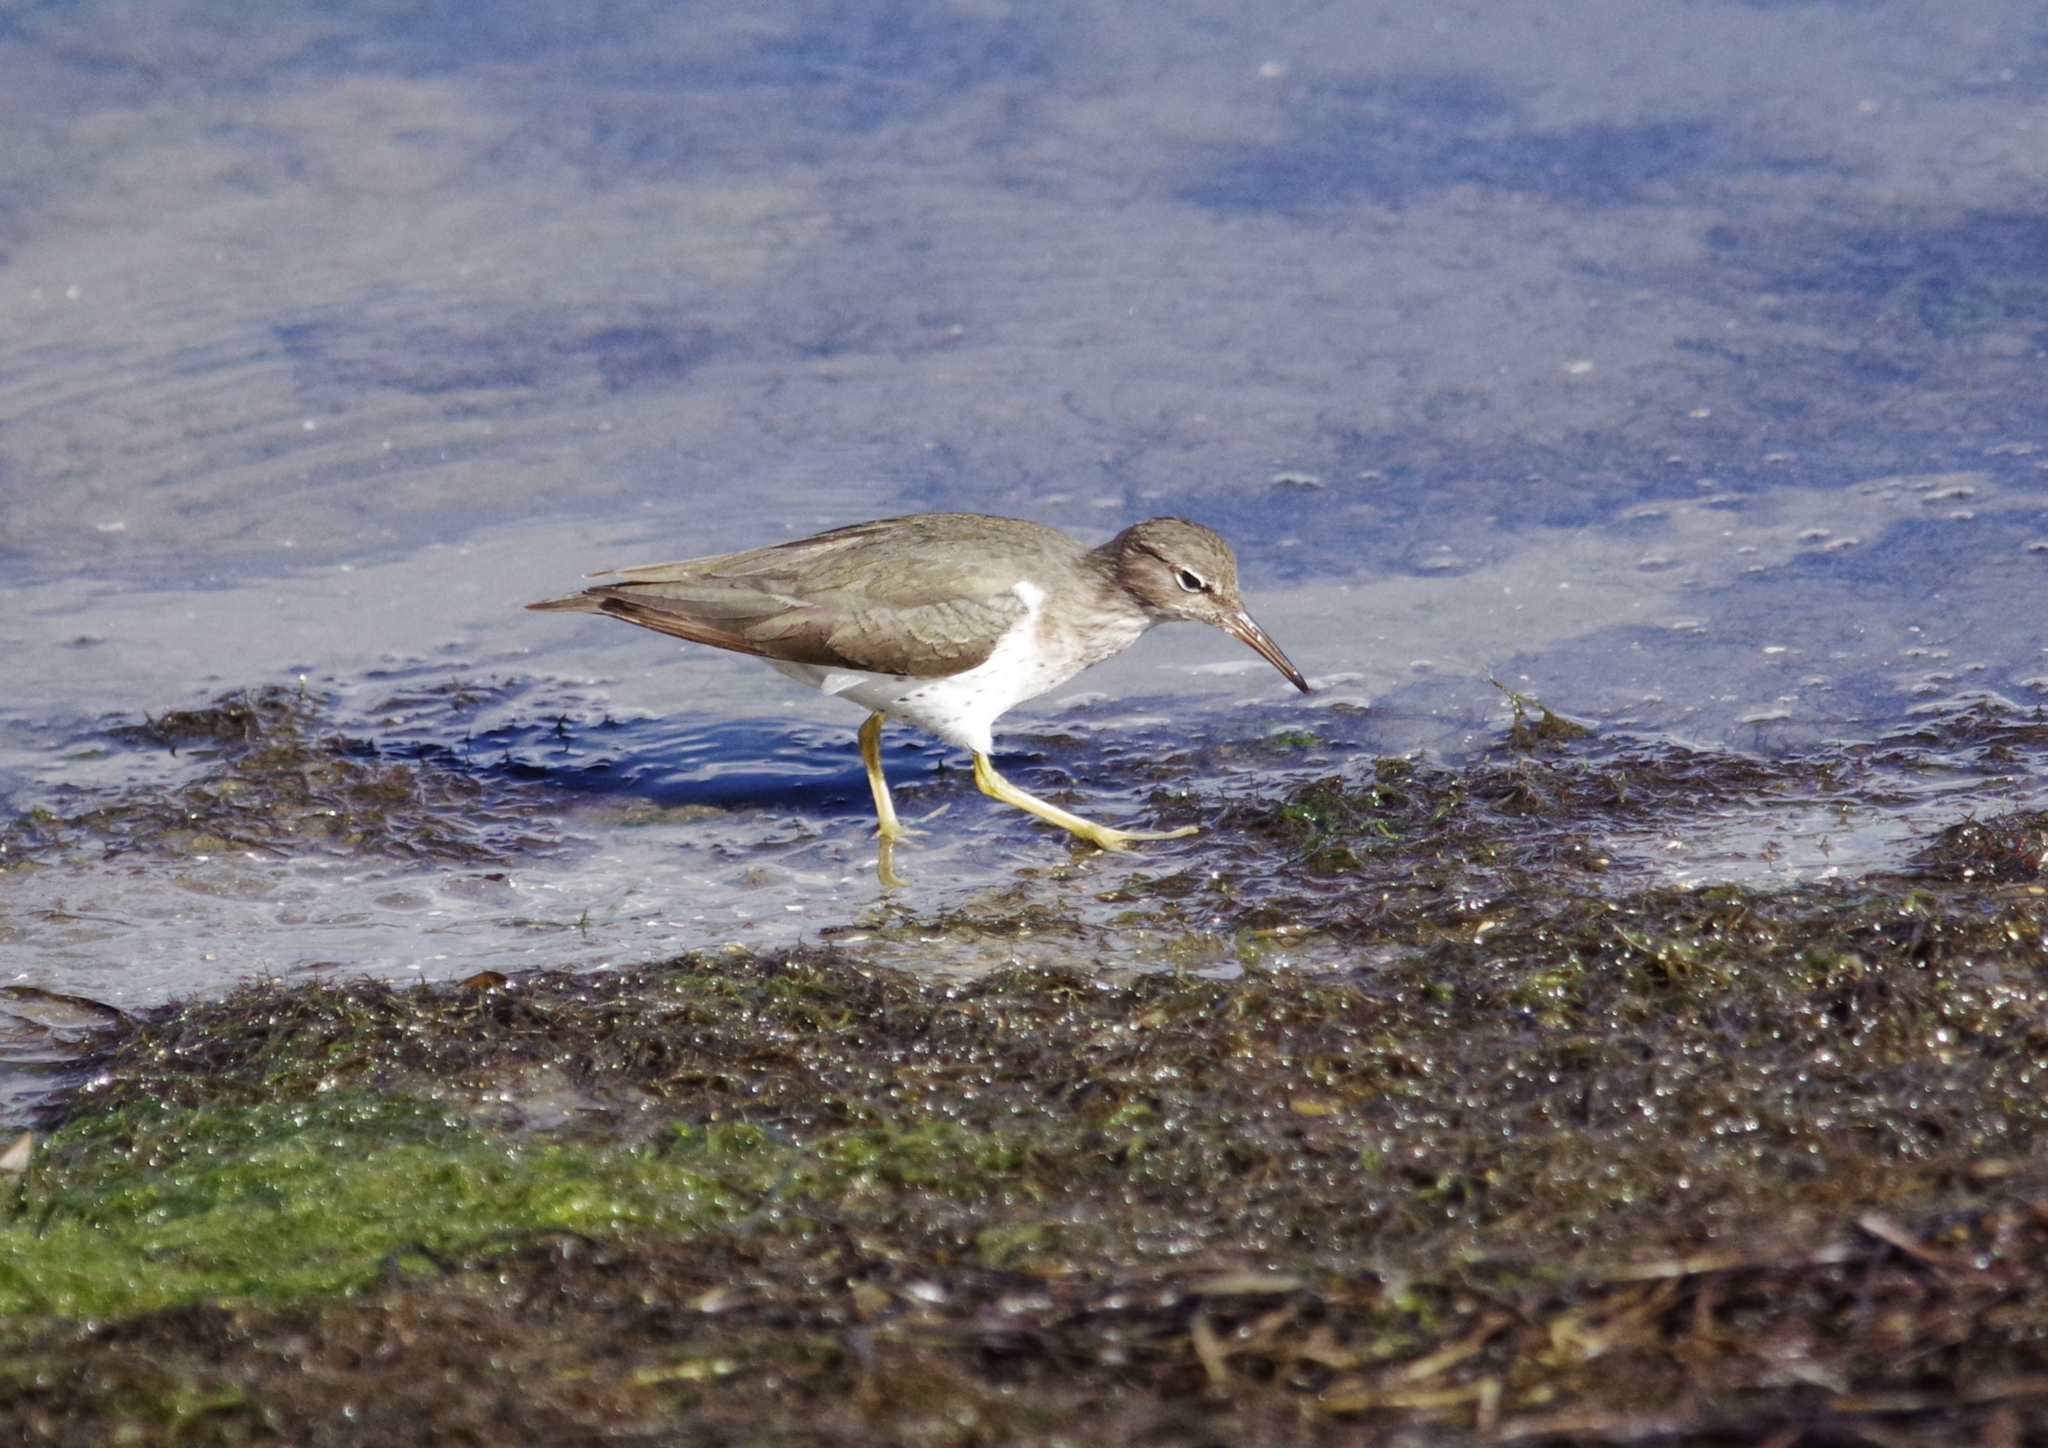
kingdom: Animalia
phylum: Chordata
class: Aves
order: Charadriiformes
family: Scolopacidae
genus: Actitis
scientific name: Actitis macularius
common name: Spotted sandpiper
